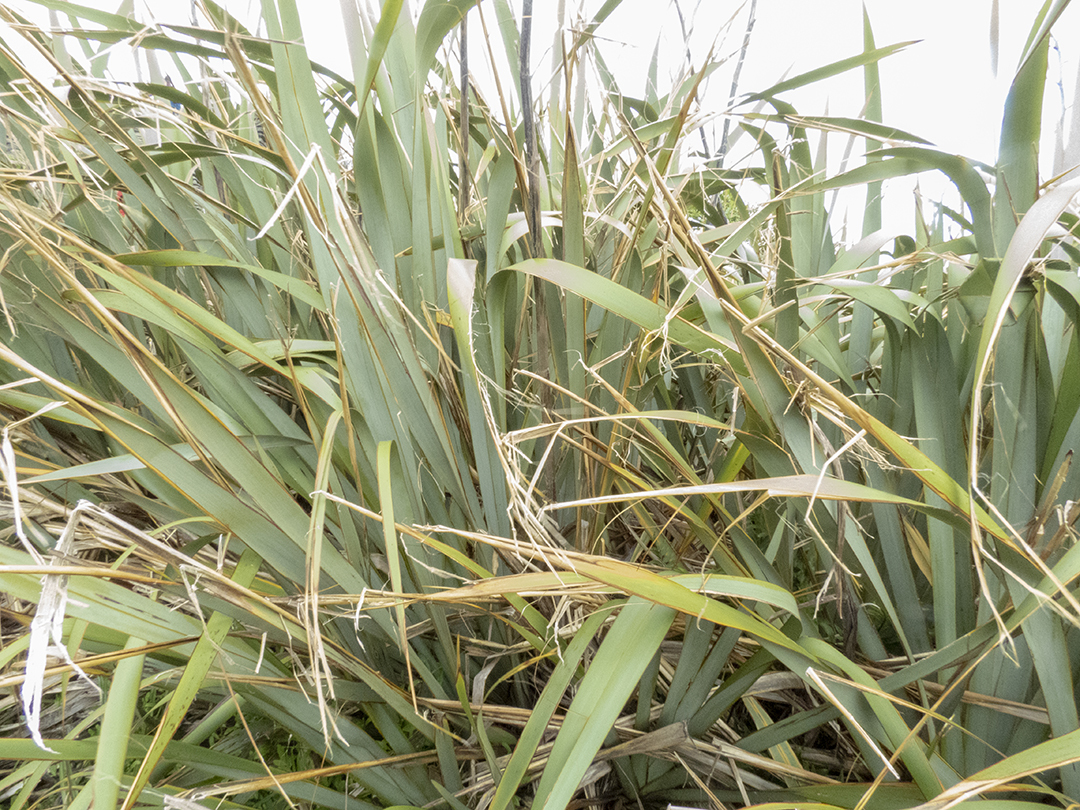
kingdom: Plantae
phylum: Tracheophyta
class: Liliopsida
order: Asparagales
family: Asphodelaceae
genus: Phormium
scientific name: Phormium tenax
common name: New zealand flax
